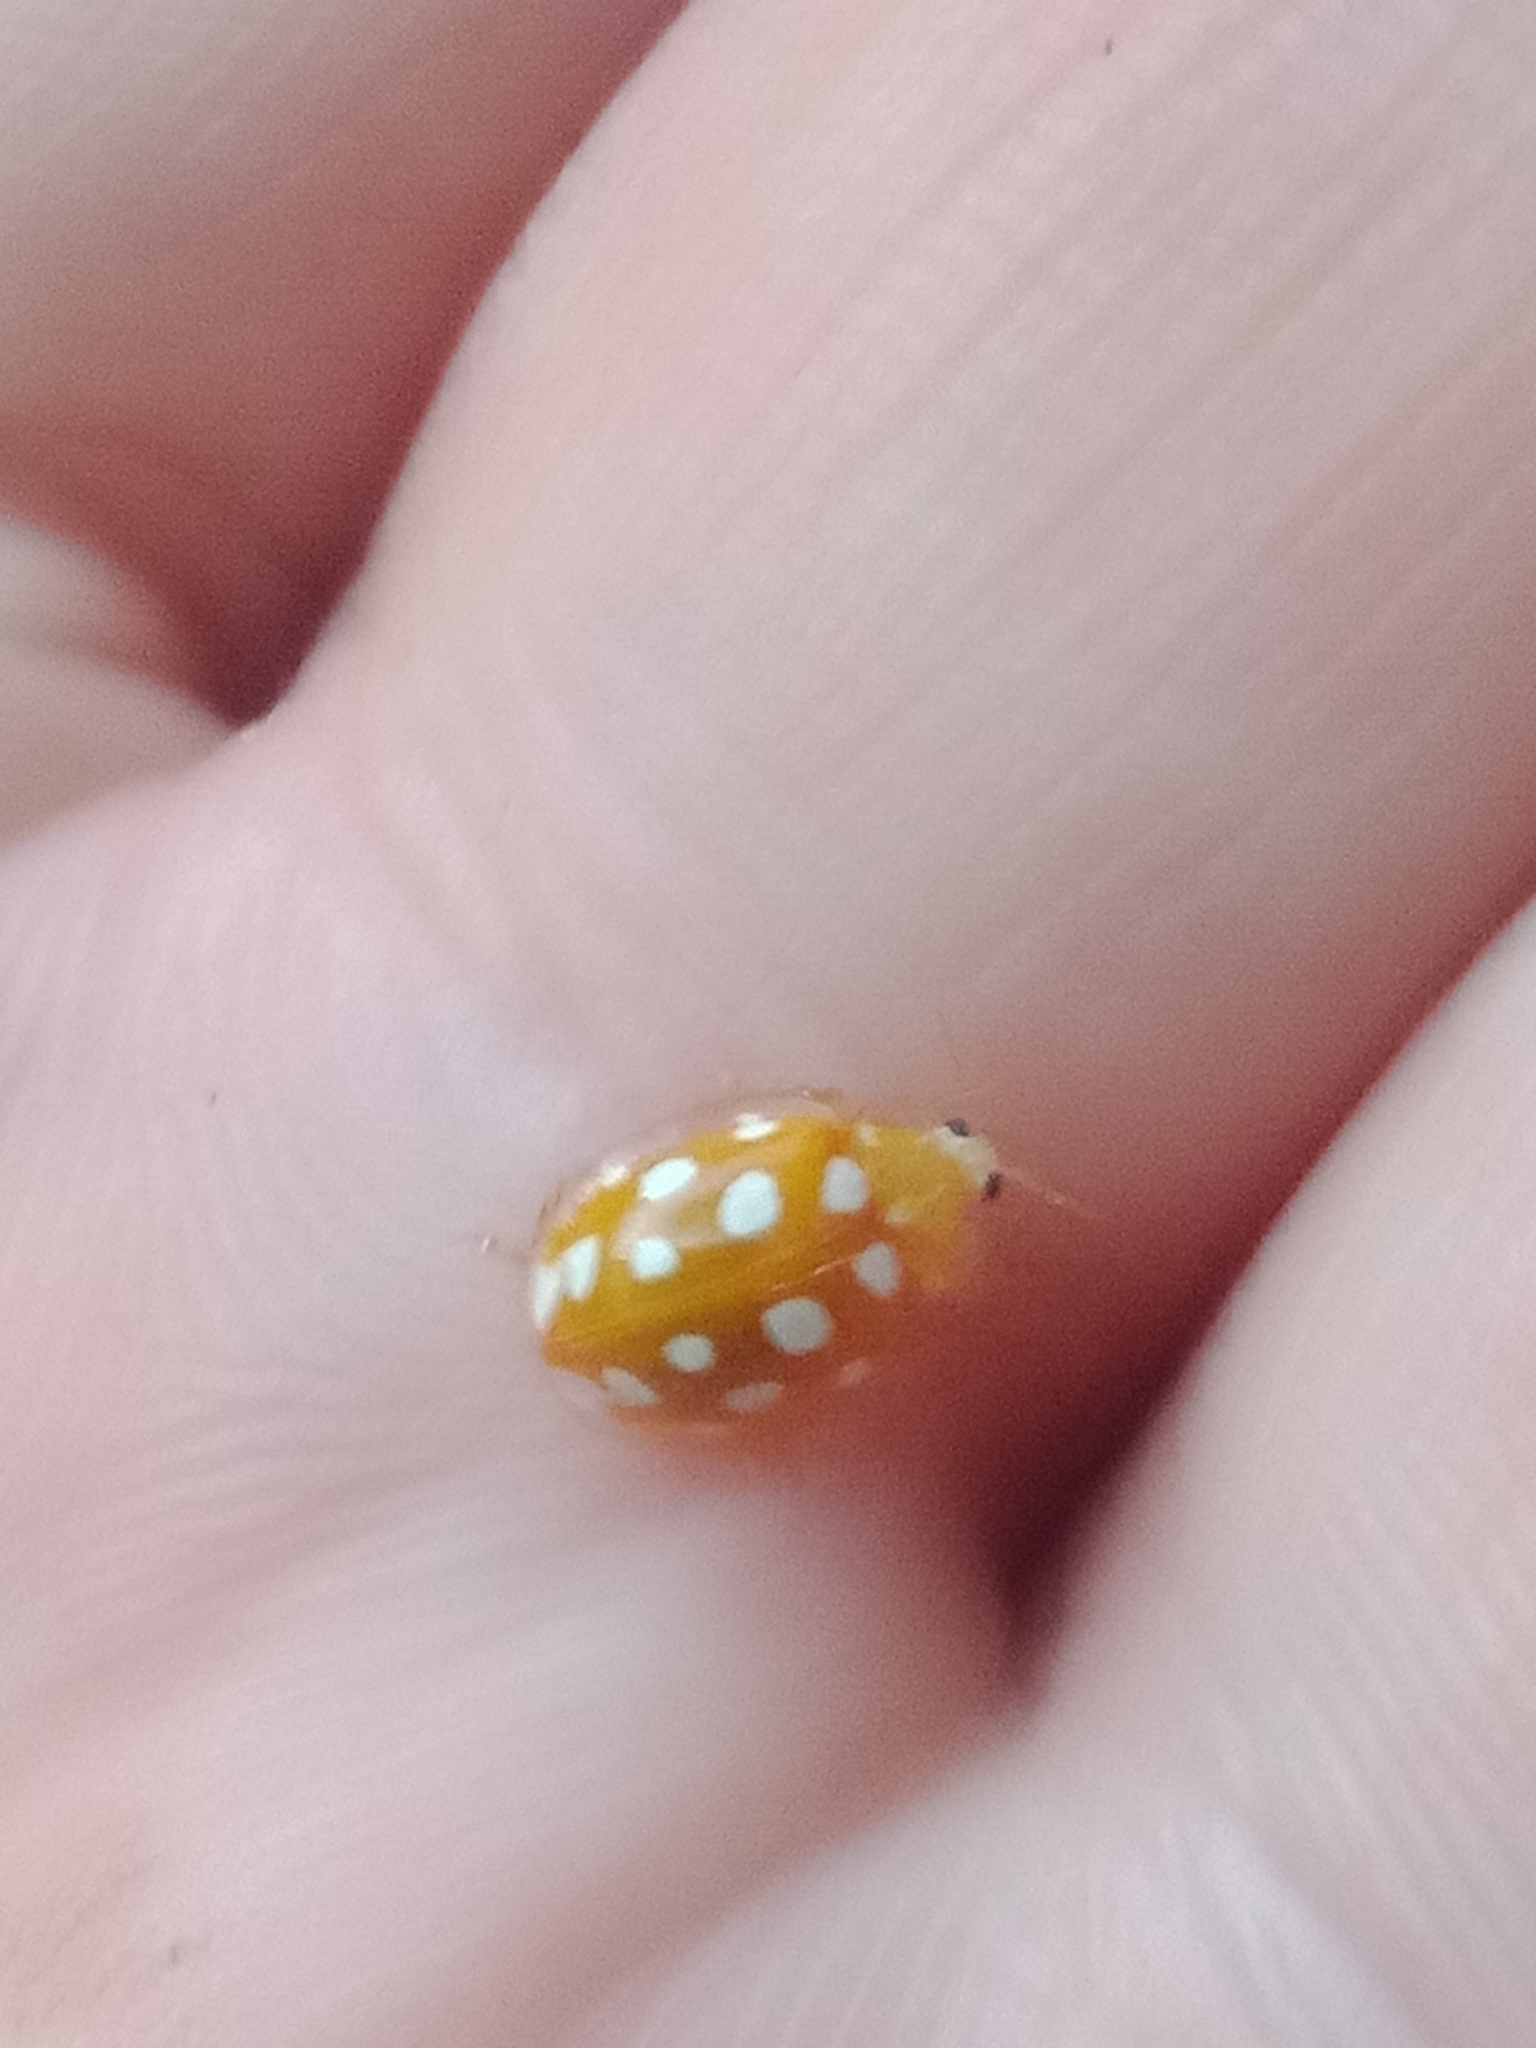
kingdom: Animalia
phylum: Arthropoda
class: Insecta
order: Coleoptera
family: Coccinellidae
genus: Halyzia
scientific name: Halyzia sedecimguttata
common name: Orange ladybird
